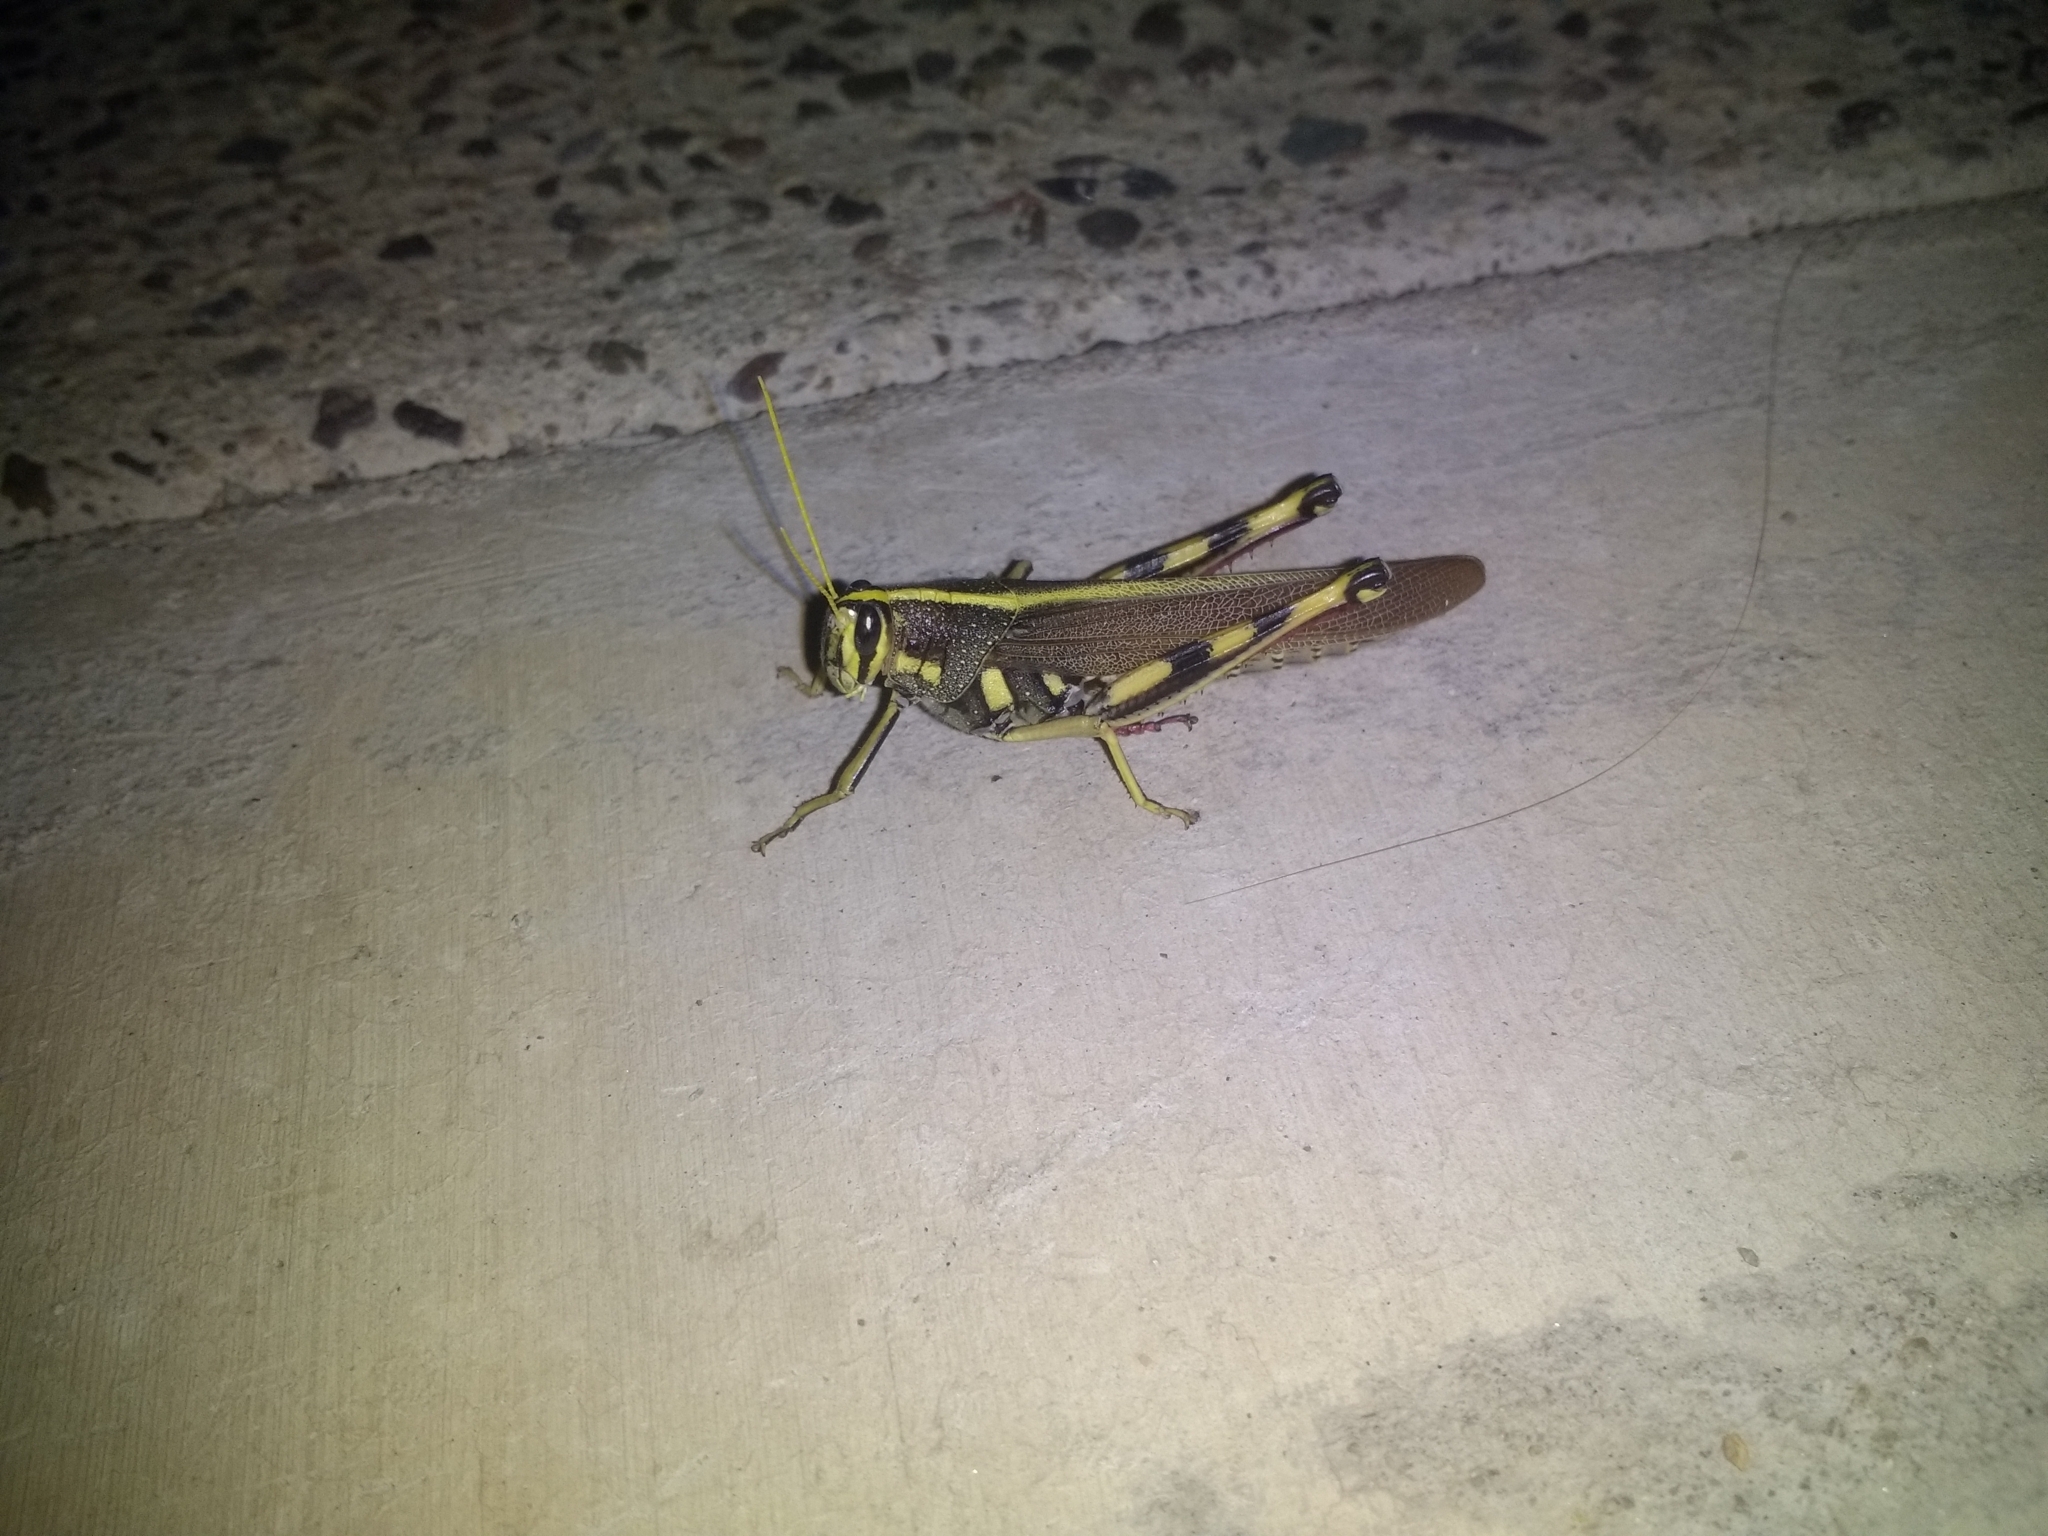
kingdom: Animalia
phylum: Arthropoda
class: Insecta
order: Orthoptera
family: Acrididae
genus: Schistocerca
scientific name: Schistocerca albolineata
